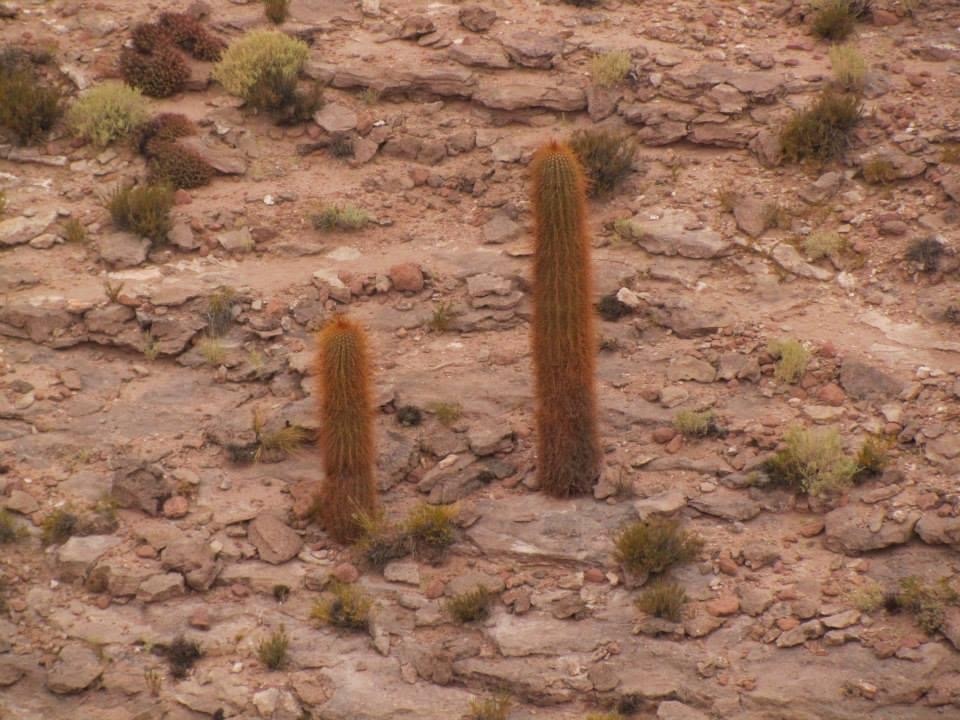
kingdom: Plantae
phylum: Tracheophyta
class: Magnoliopsida
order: Caryophyllales
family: Cactaceae
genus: Leucostele
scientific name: Leucostele atacamensis
